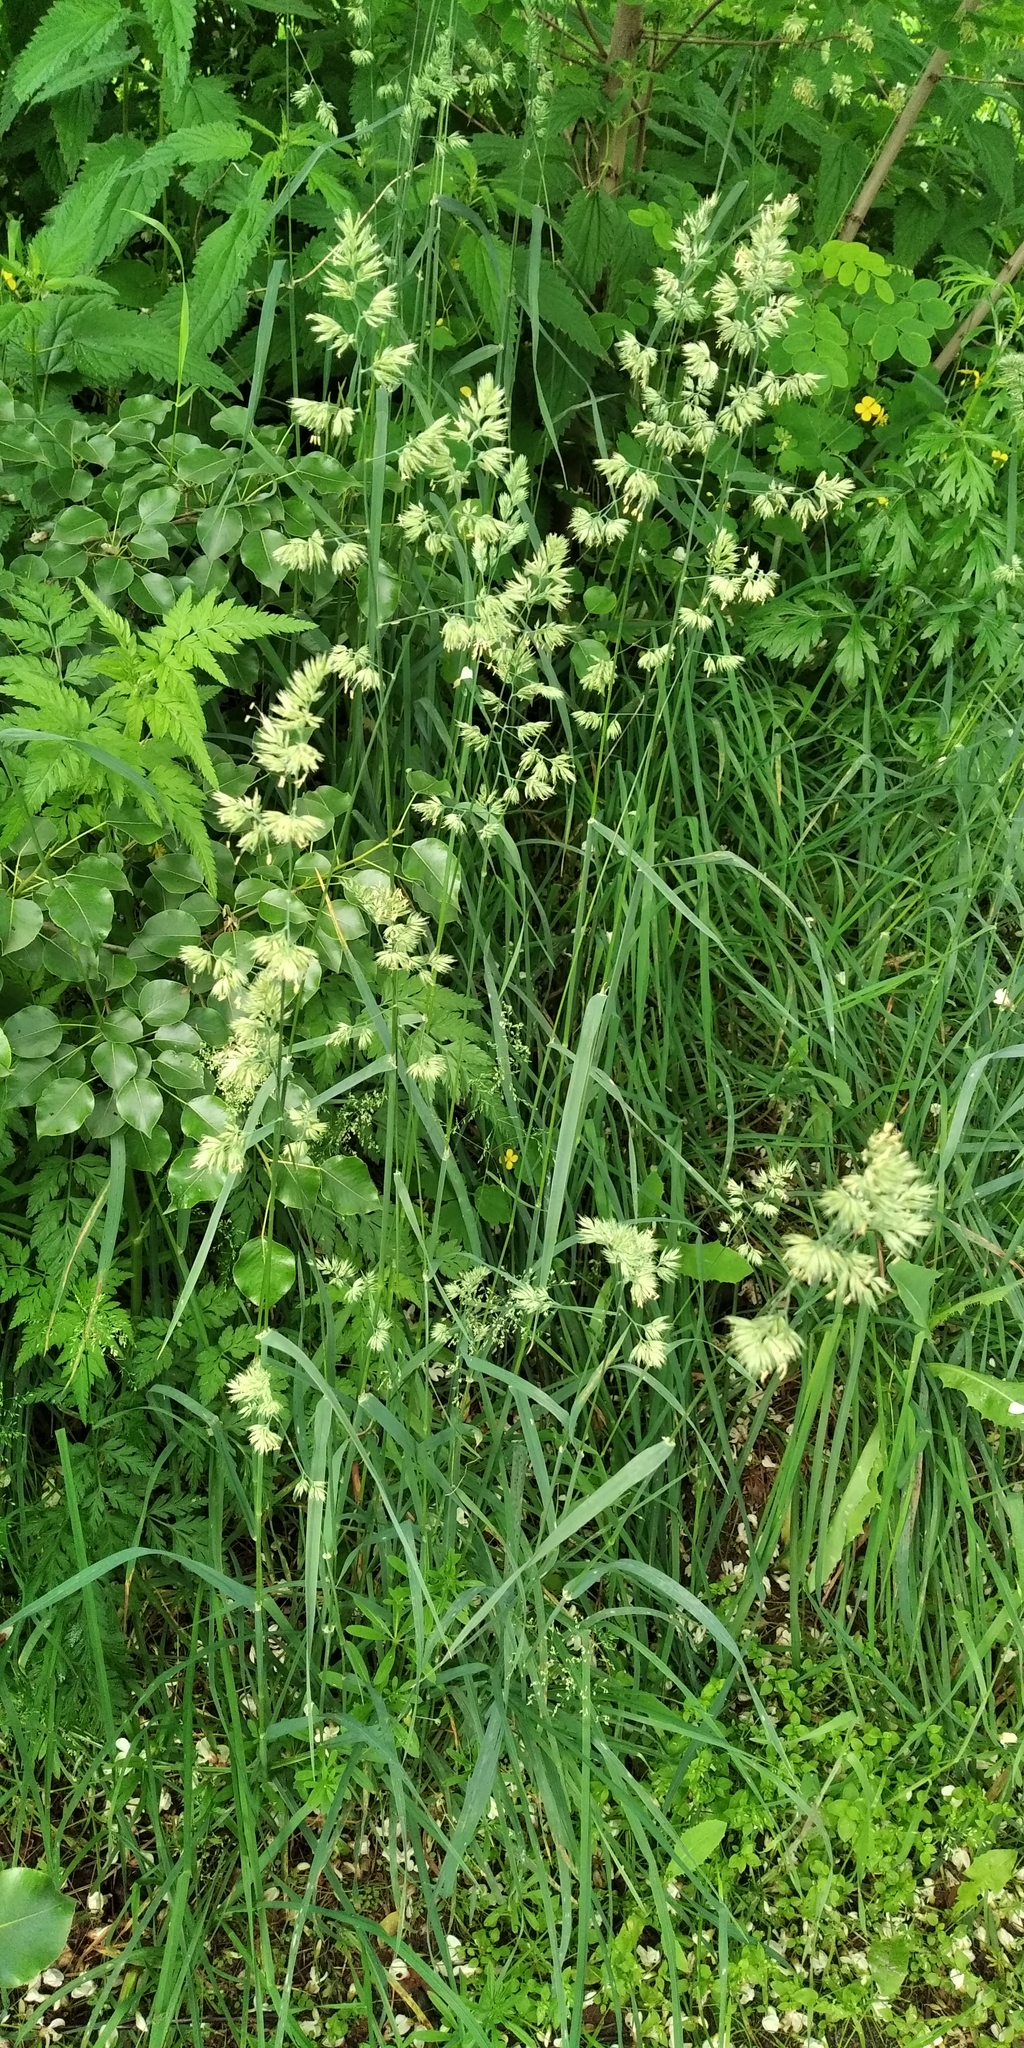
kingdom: Plantae
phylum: Tracheophyta
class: Liliopsida
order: Poales
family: Poaceae
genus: Dactylis
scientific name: Dactylis glomerata
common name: Orchardgrass
